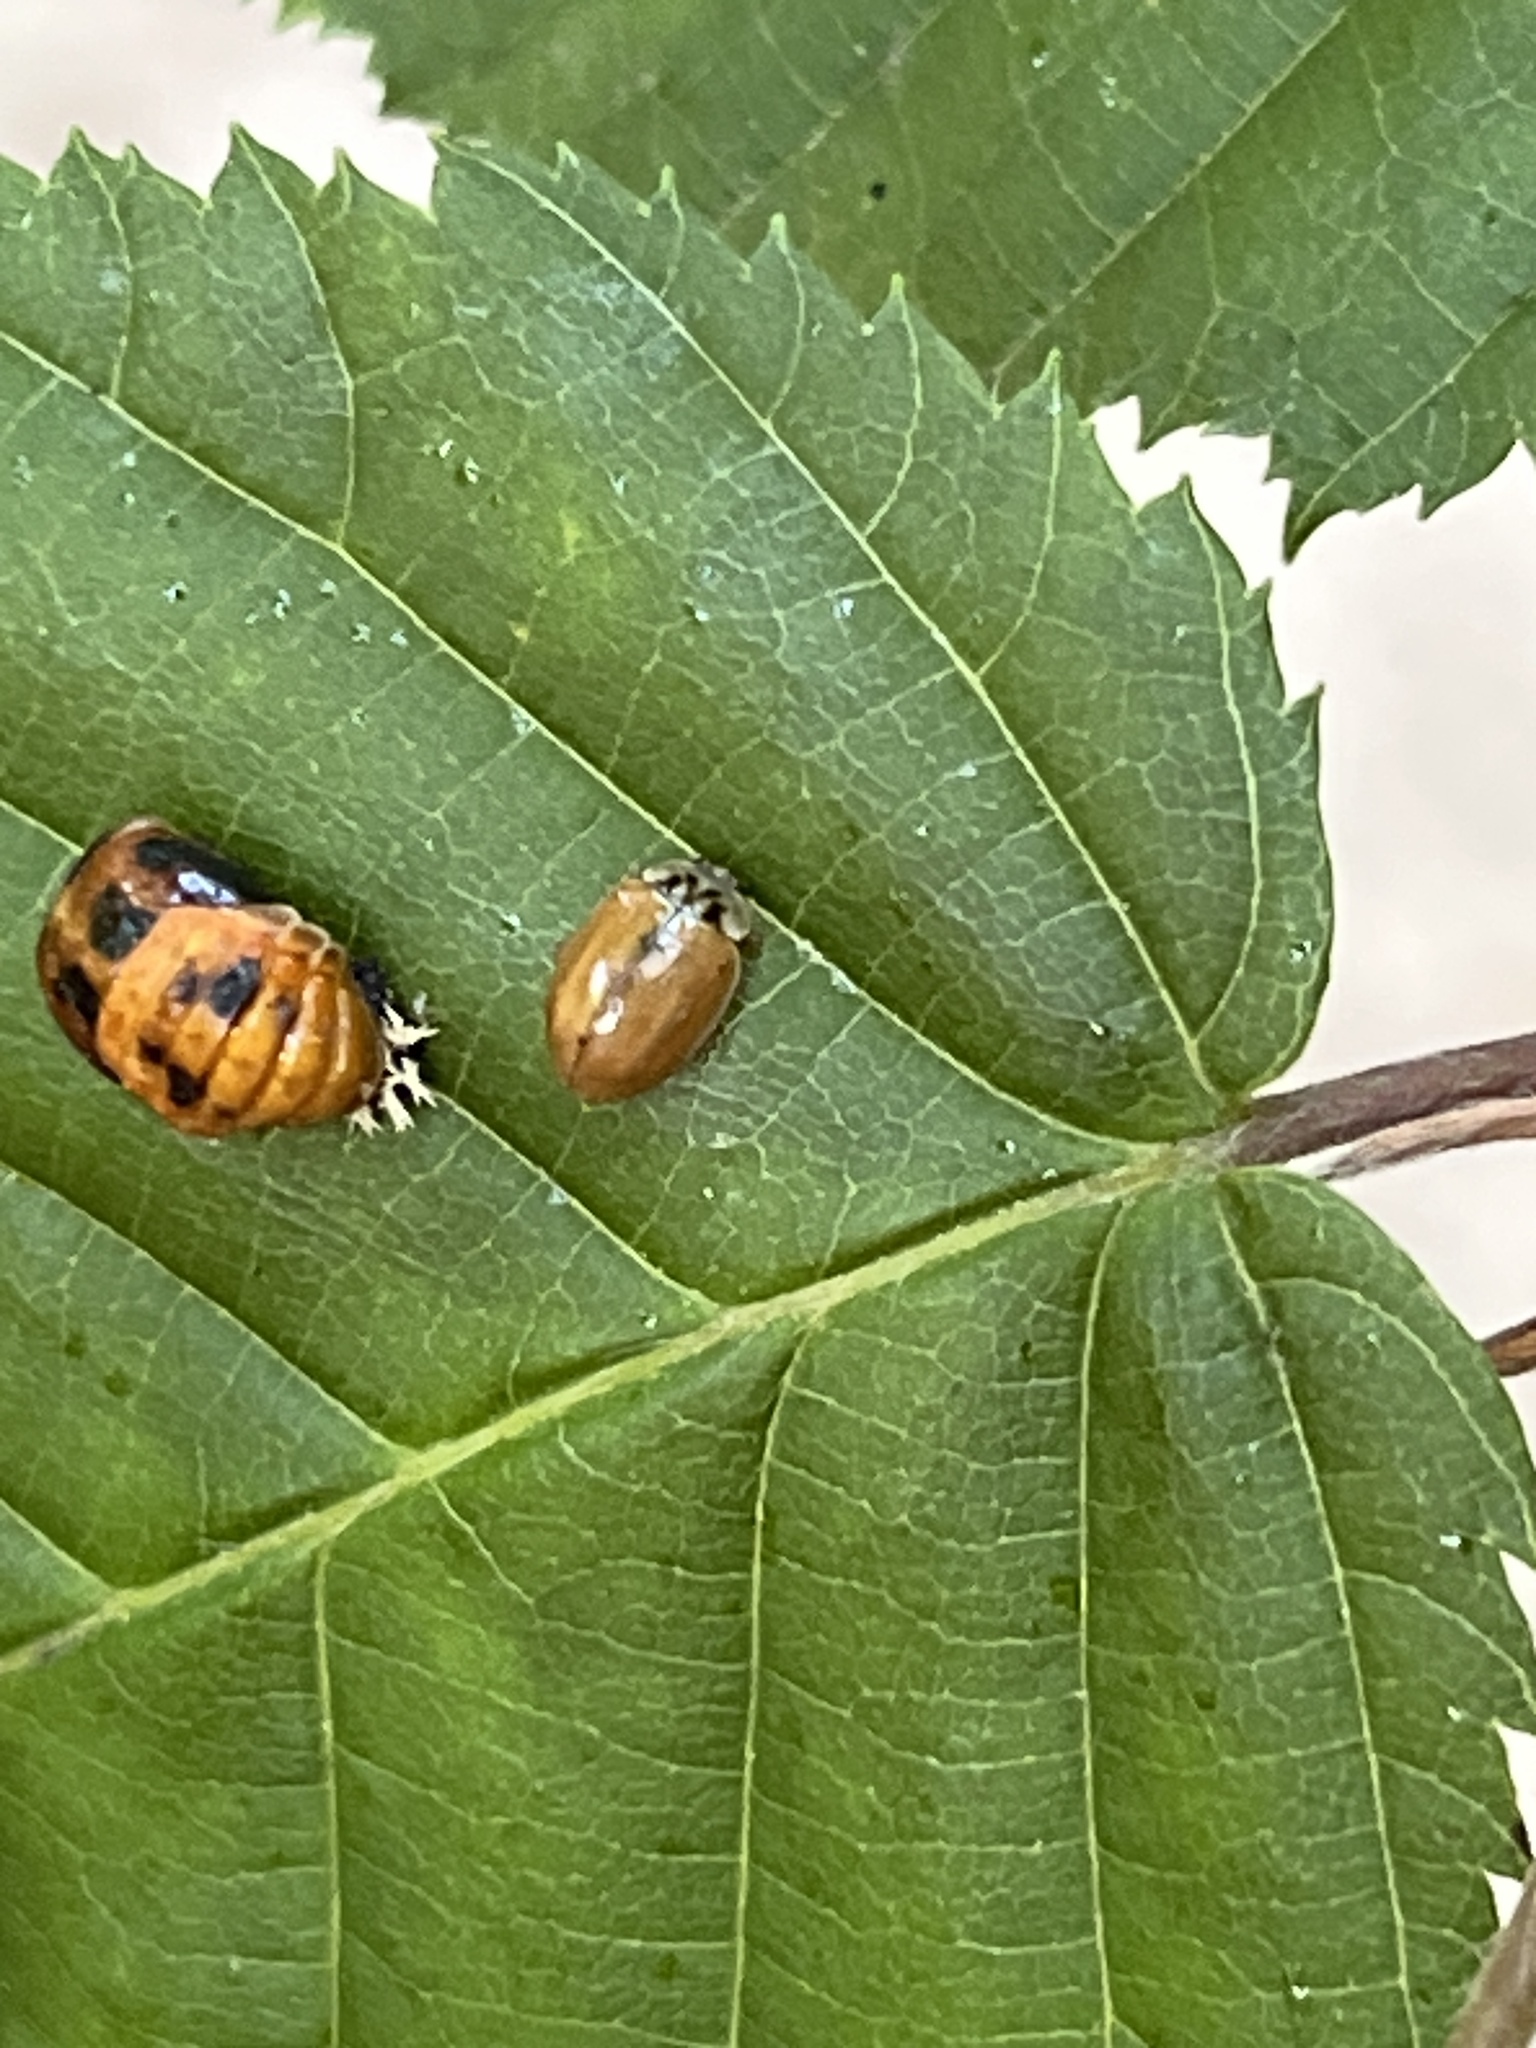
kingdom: Animalia
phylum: Arthropoda
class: Insecta
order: Coleoptera
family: Coccinellidae
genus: Aphidecta
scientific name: Aphidecta obliterata
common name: Larch ladybird
